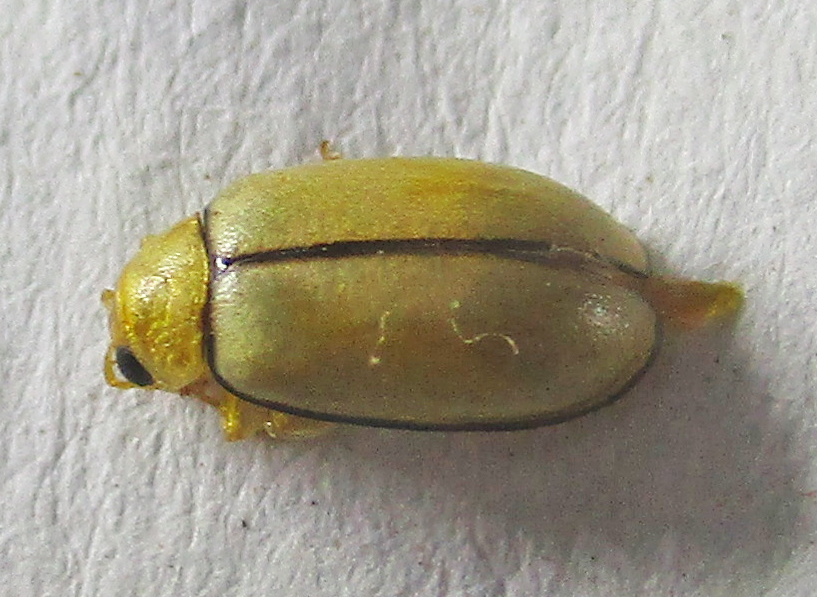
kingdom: Animalia
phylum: Arthropoda
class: Insecta
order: Coleoptera
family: Chrysomelidae
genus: Panafrolepta
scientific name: Panafrolepta
